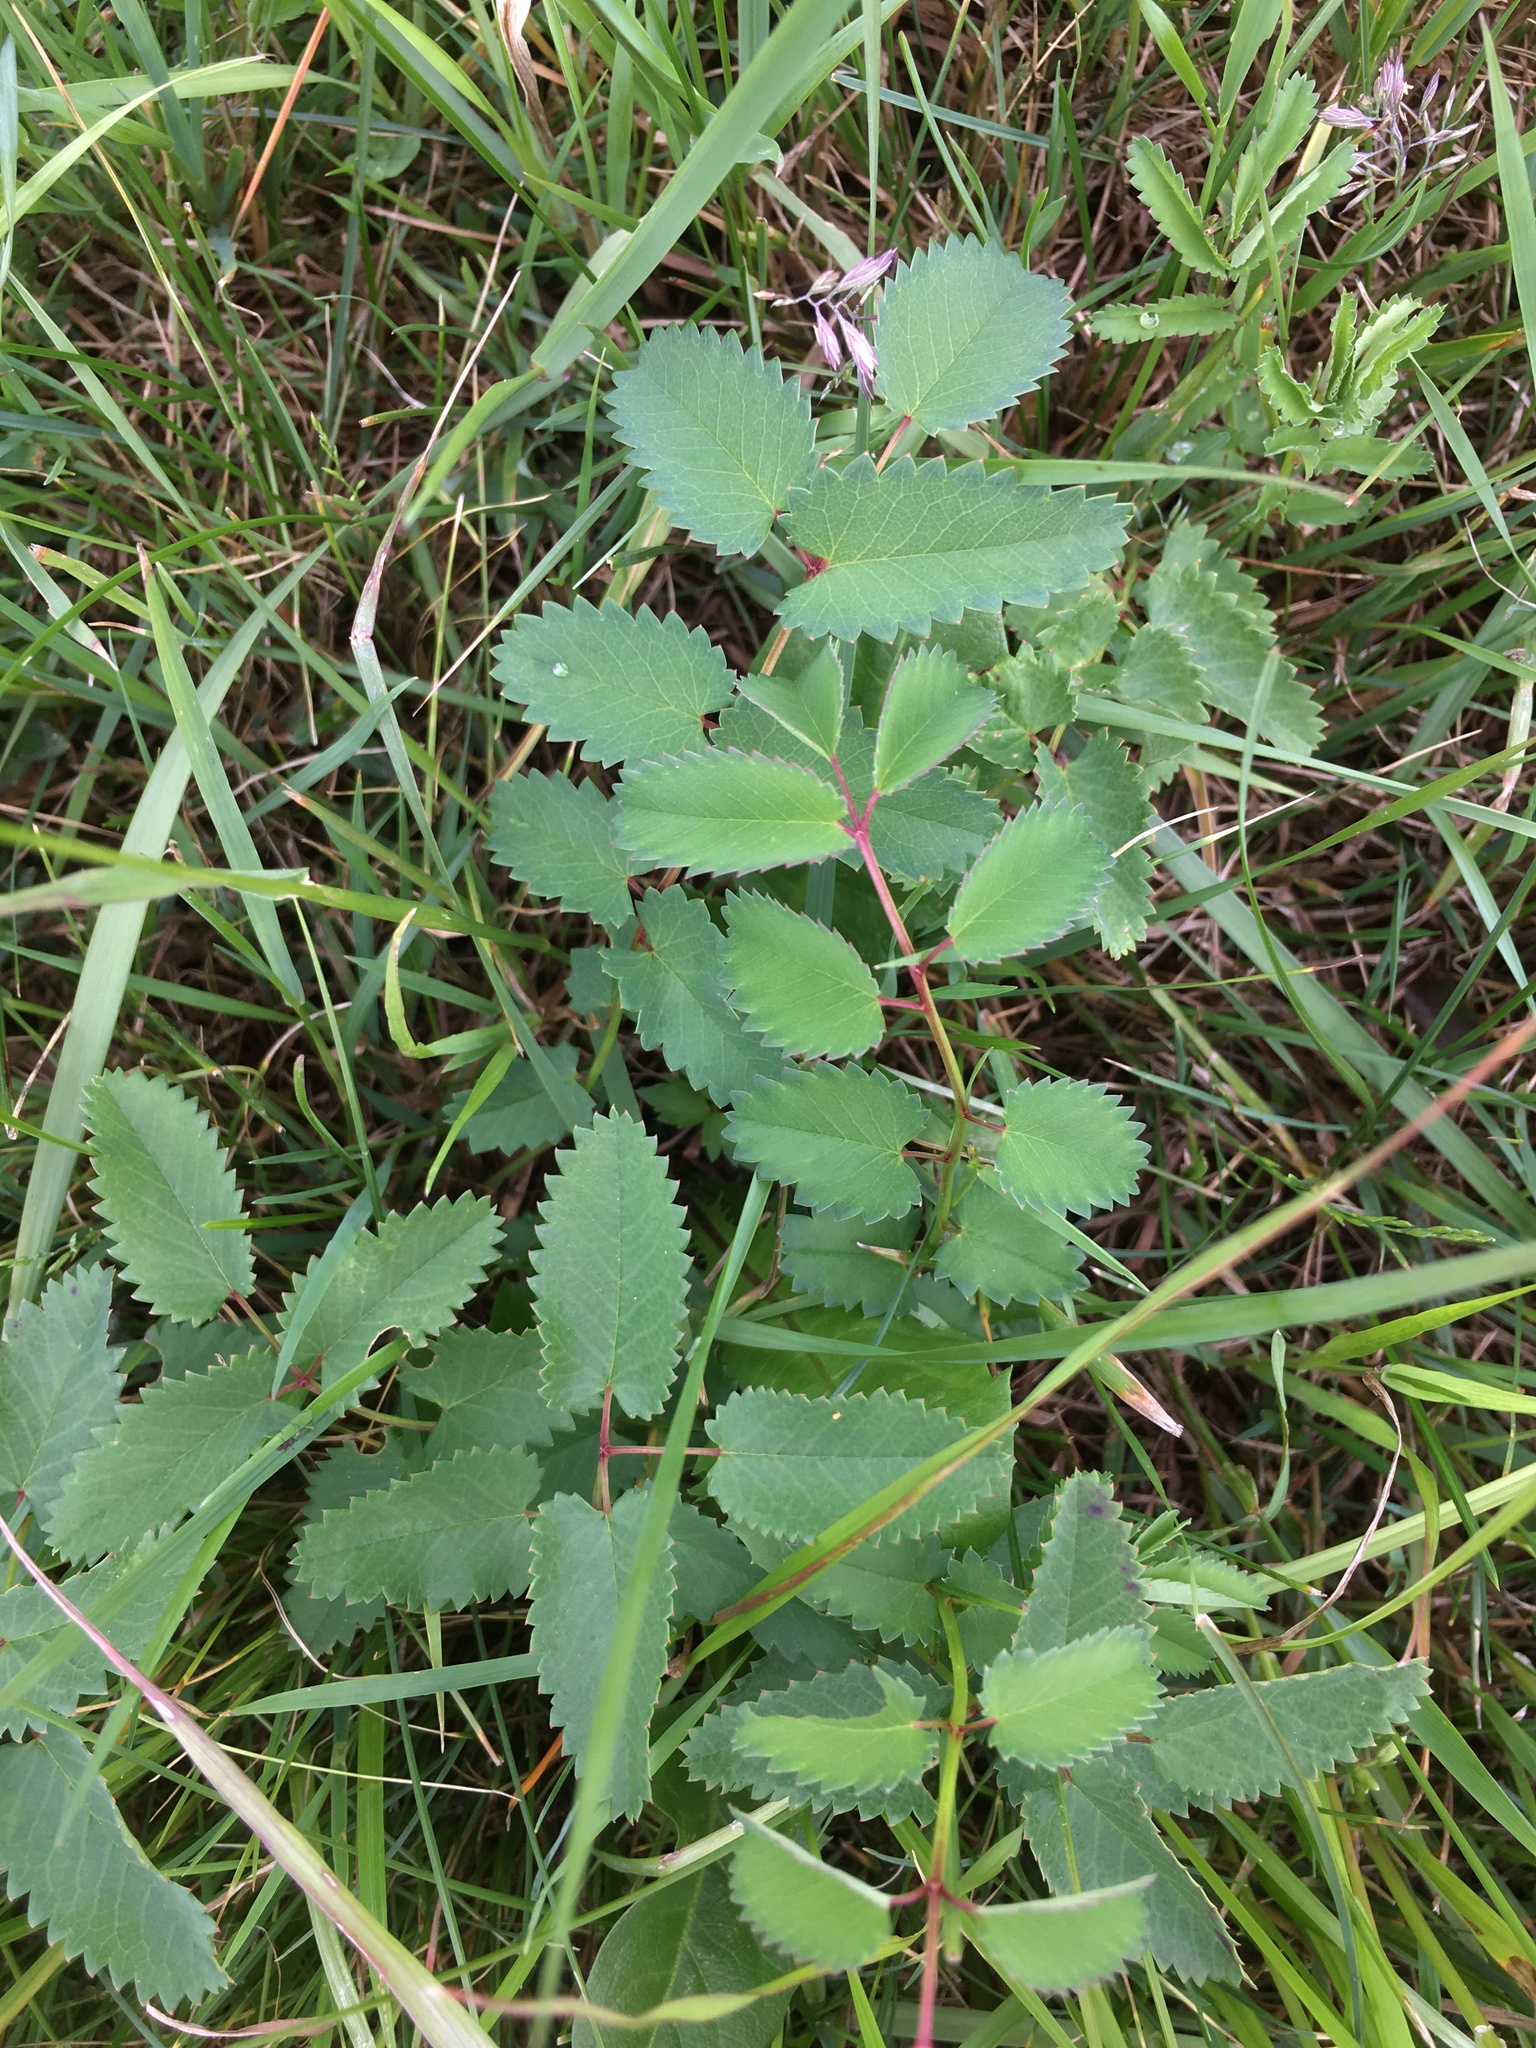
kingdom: Plantae
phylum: Tracheophyta
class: Magnoliopsida
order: Rosales
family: Rosaceae
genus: Sanguisorba
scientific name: Sanguisorba officinalis
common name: Great burnet
